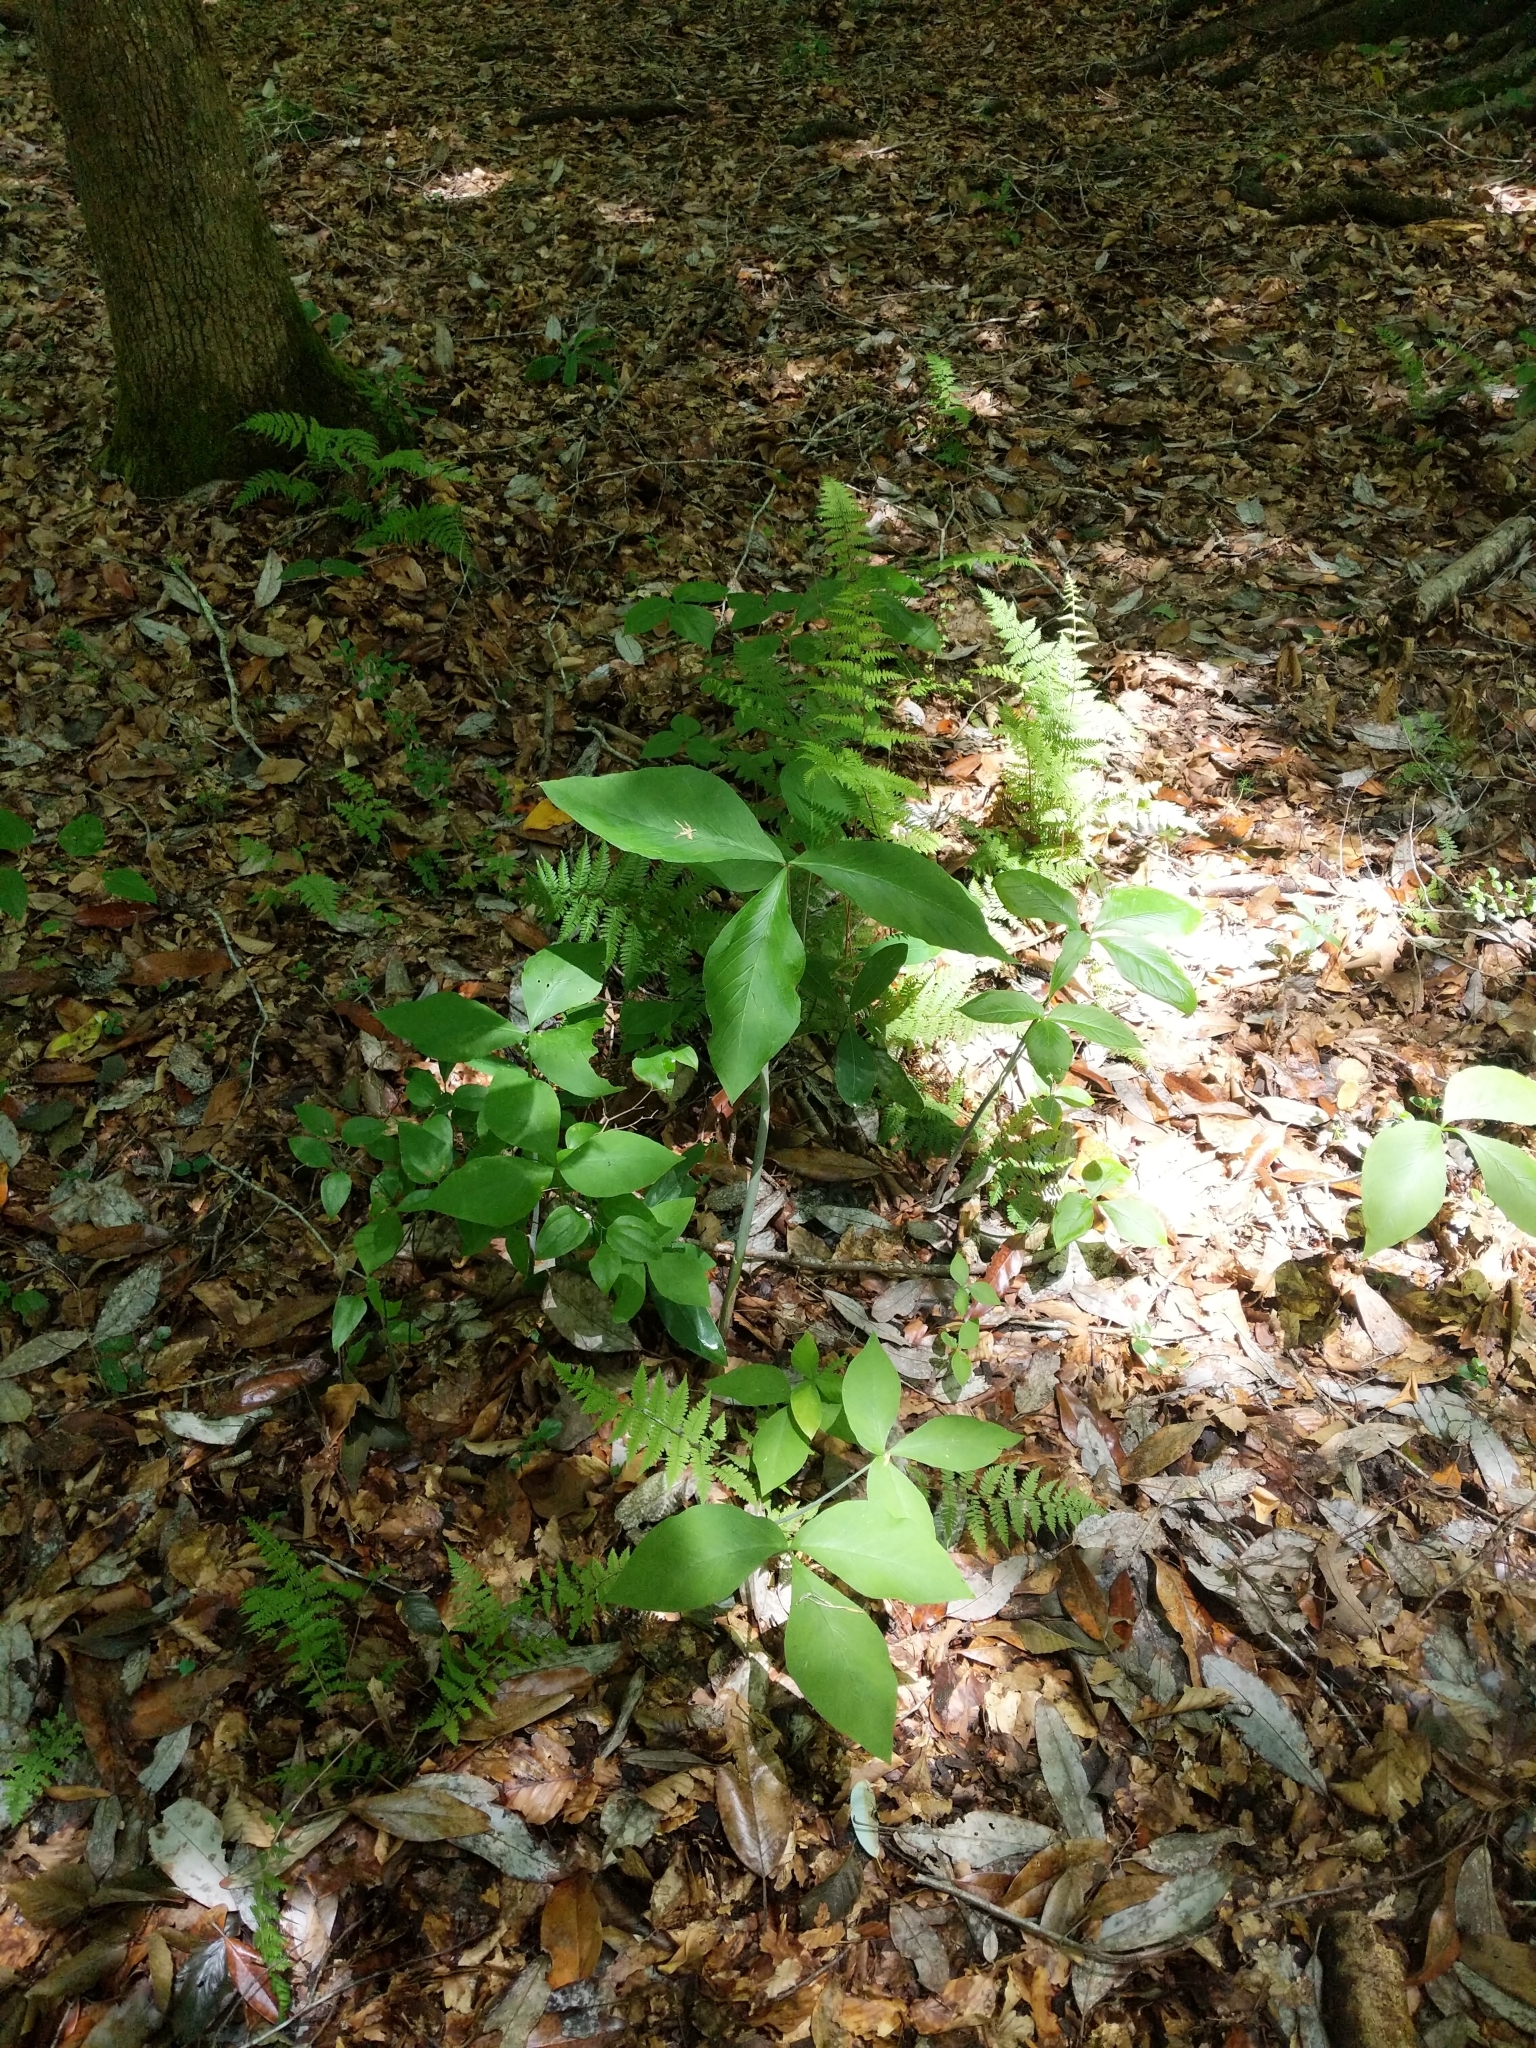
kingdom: Plantae
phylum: Tracheophyta
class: Liliopsida
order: Alismatales
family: Araceae
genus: Arisaema
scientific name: Arisaema triphyllum
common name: Jack-in-the-pulpit
